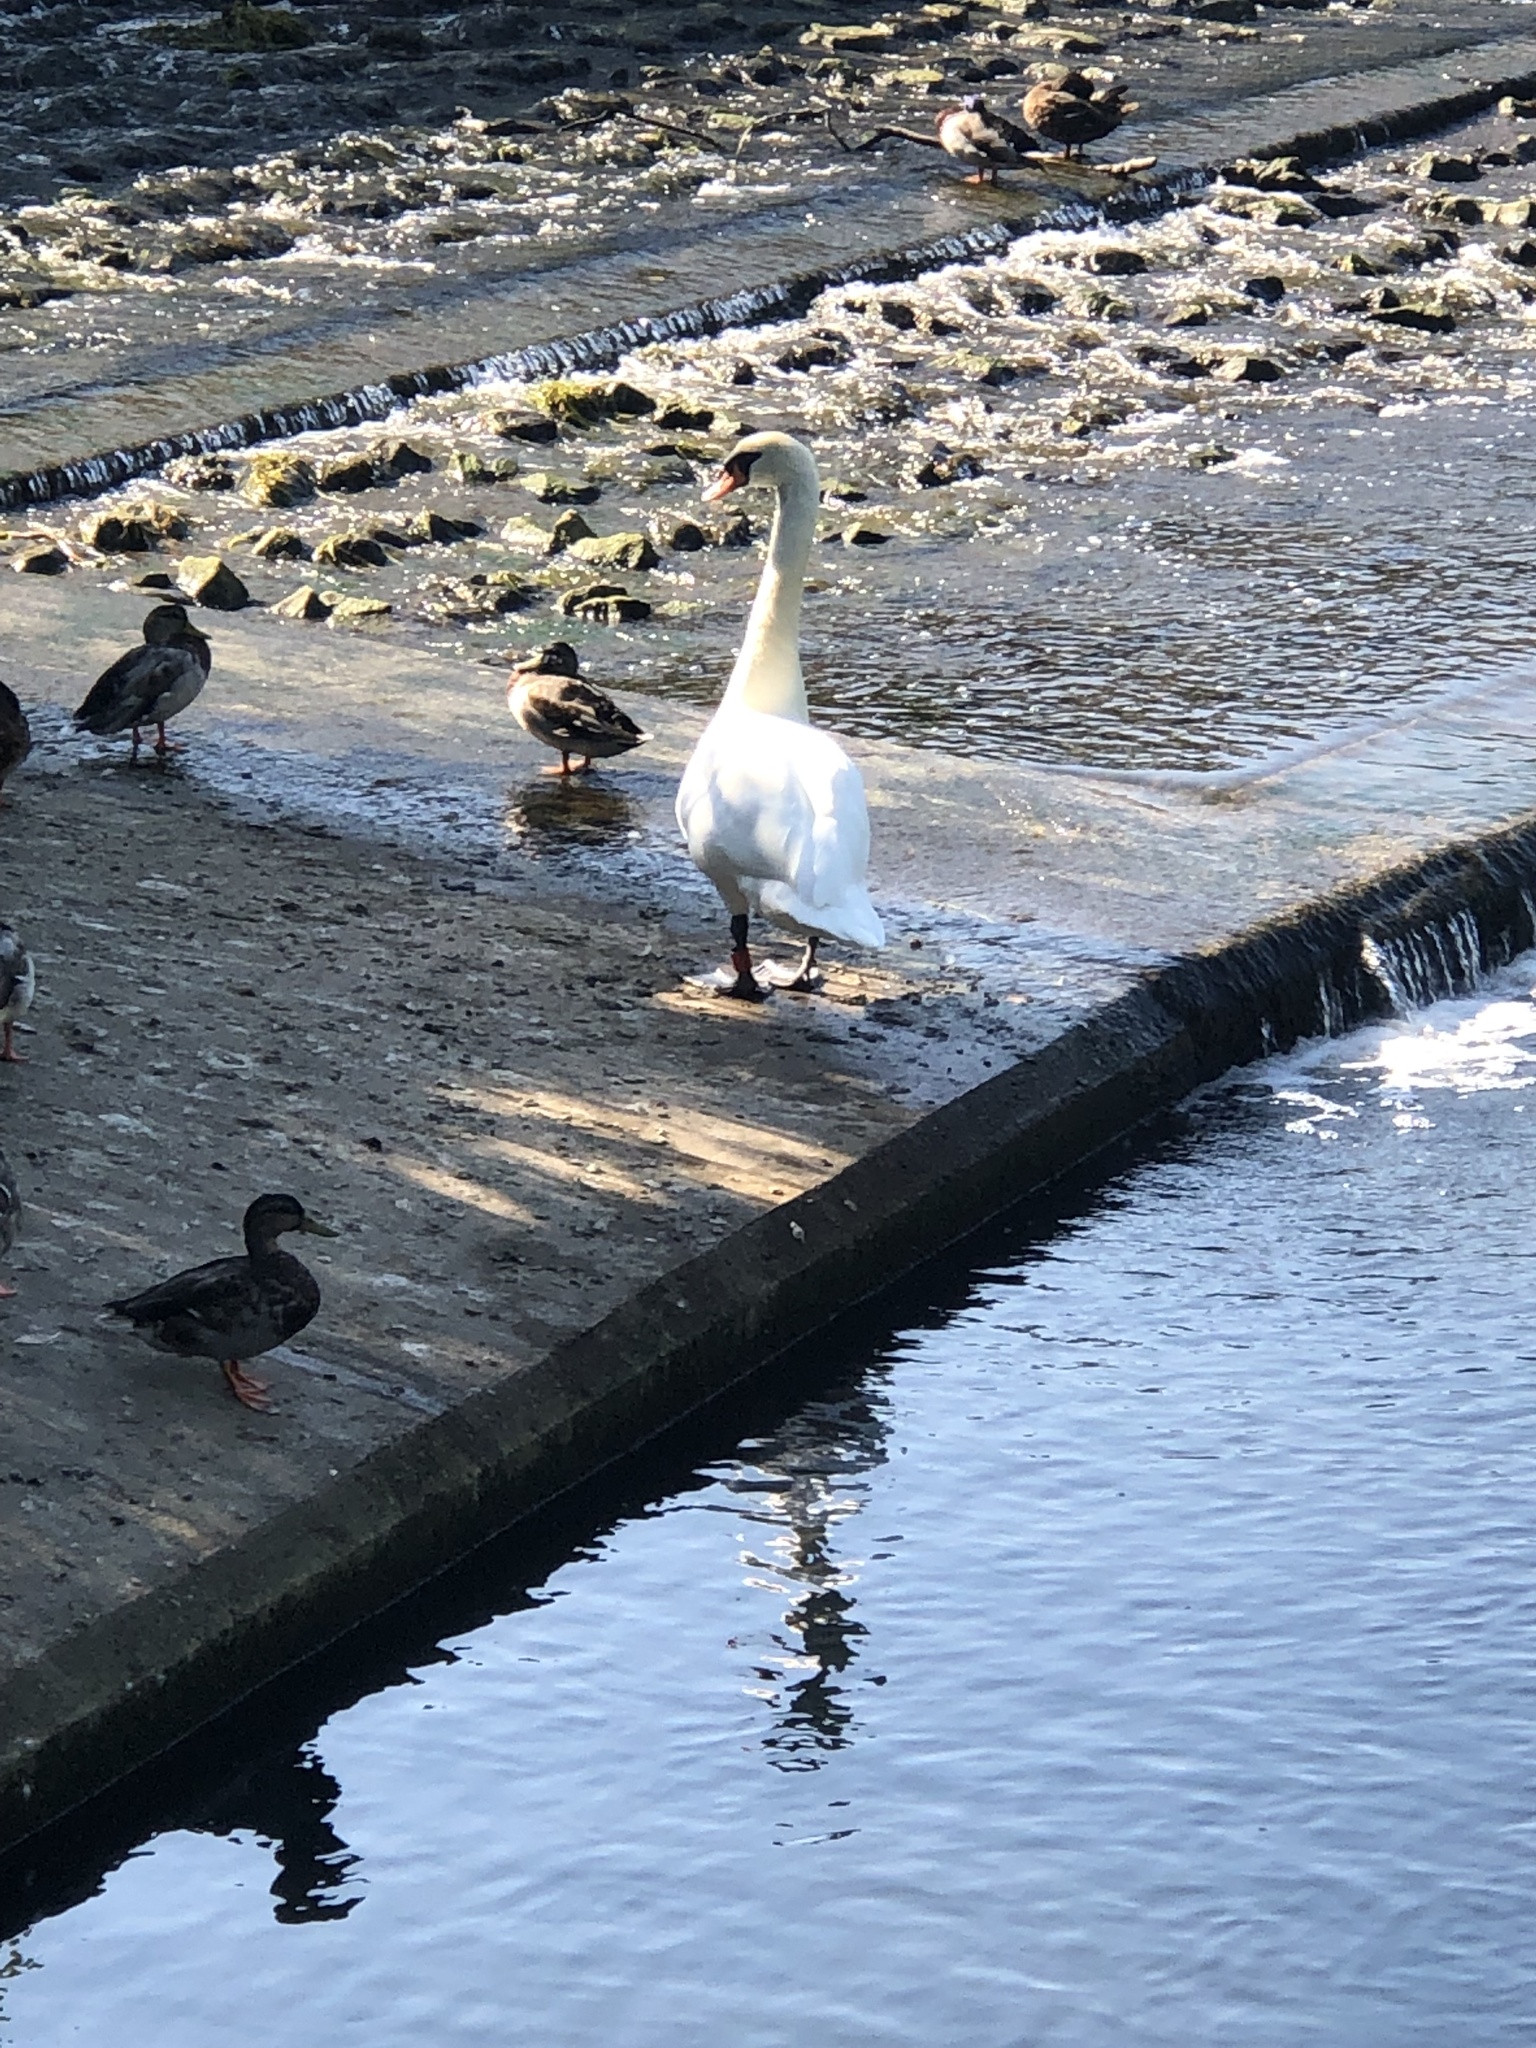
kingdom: Animalia
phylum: Chordata
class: Aves
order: Anseriformes
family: Anatidae
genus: Cygnus
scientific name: Cygnus olor
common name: Mute swan
